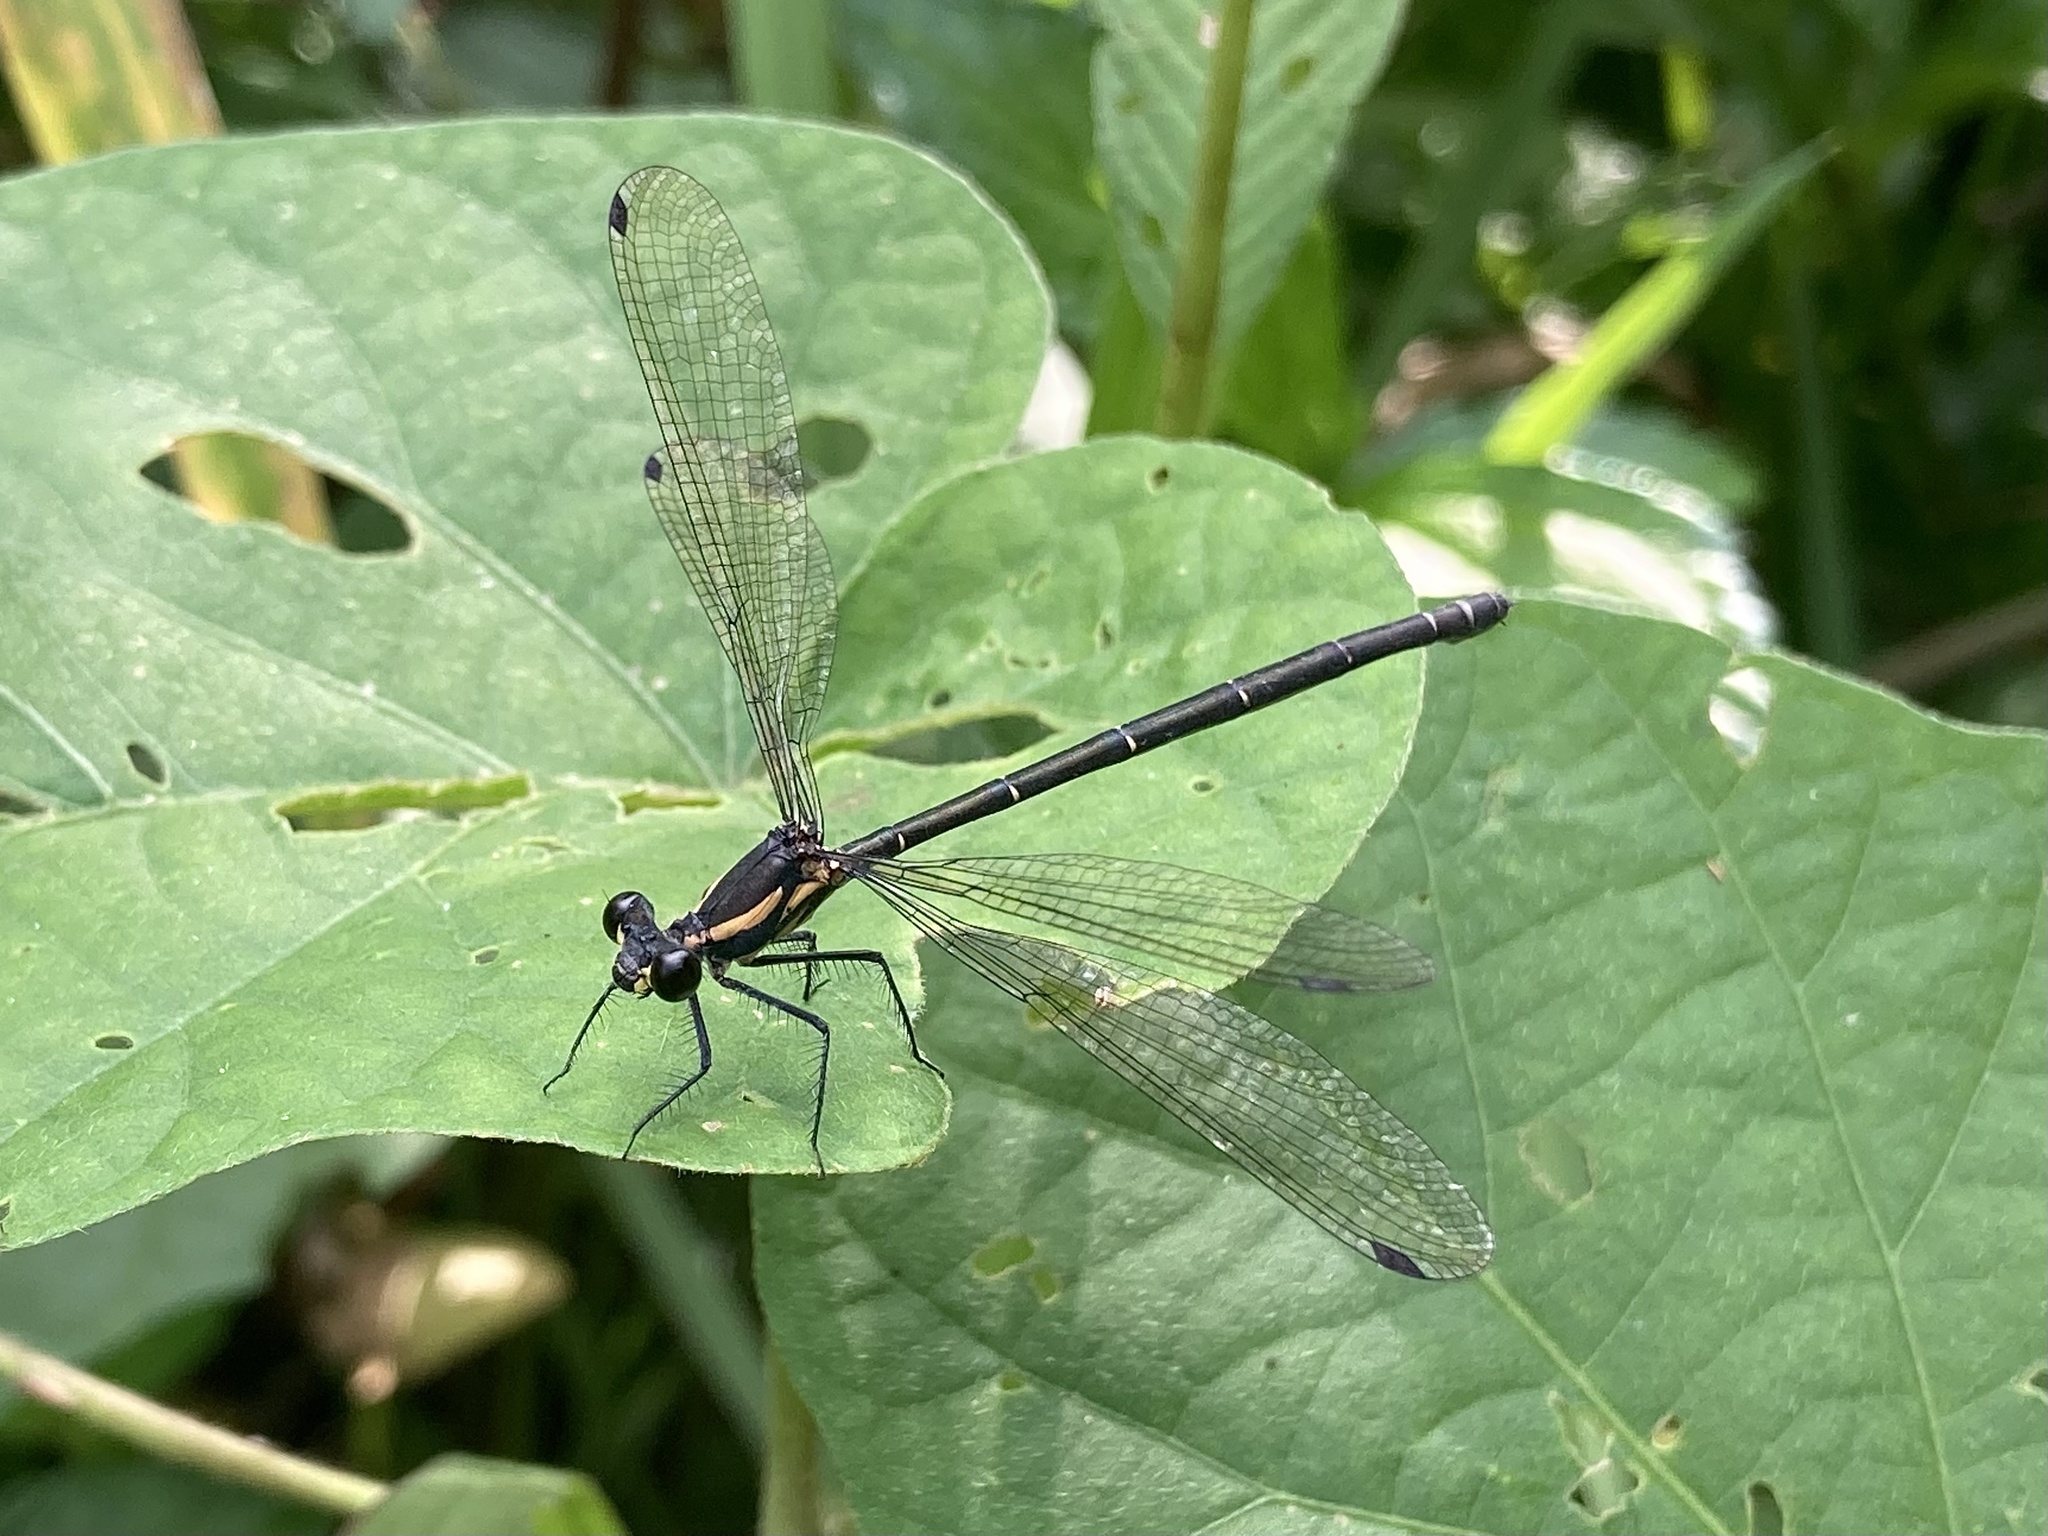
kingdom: Animalia
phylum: Arthropoda
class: Insecta
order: Odonata
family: Argiolestidae
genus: Austroargiolestes
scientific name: Austroargiolestes icteromelas
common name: Common flatwing
